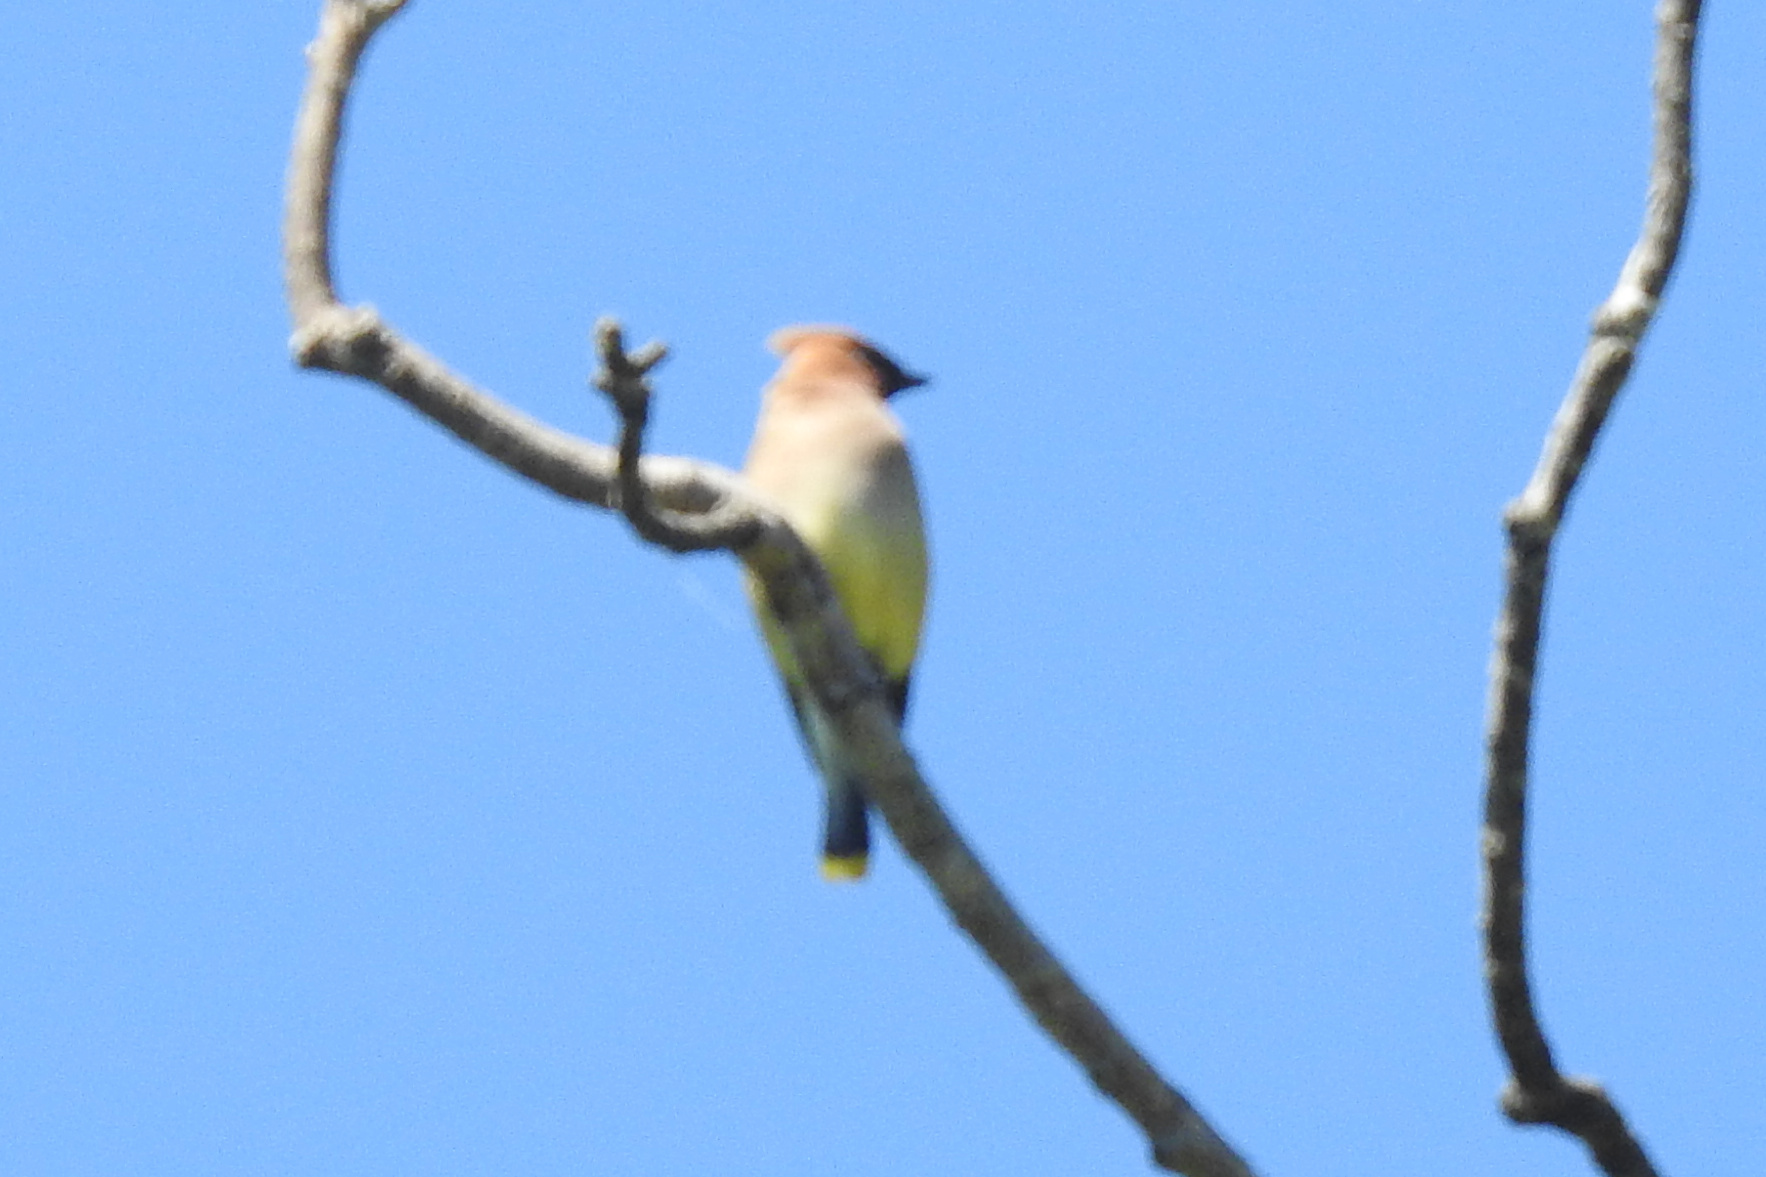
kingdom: Animalia
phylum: Chordata
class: Aves
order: Passeriformes
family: Bombycillidae
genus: Bombycilla
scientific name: Bombycilla cedrorum
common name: Cedar waxwing
